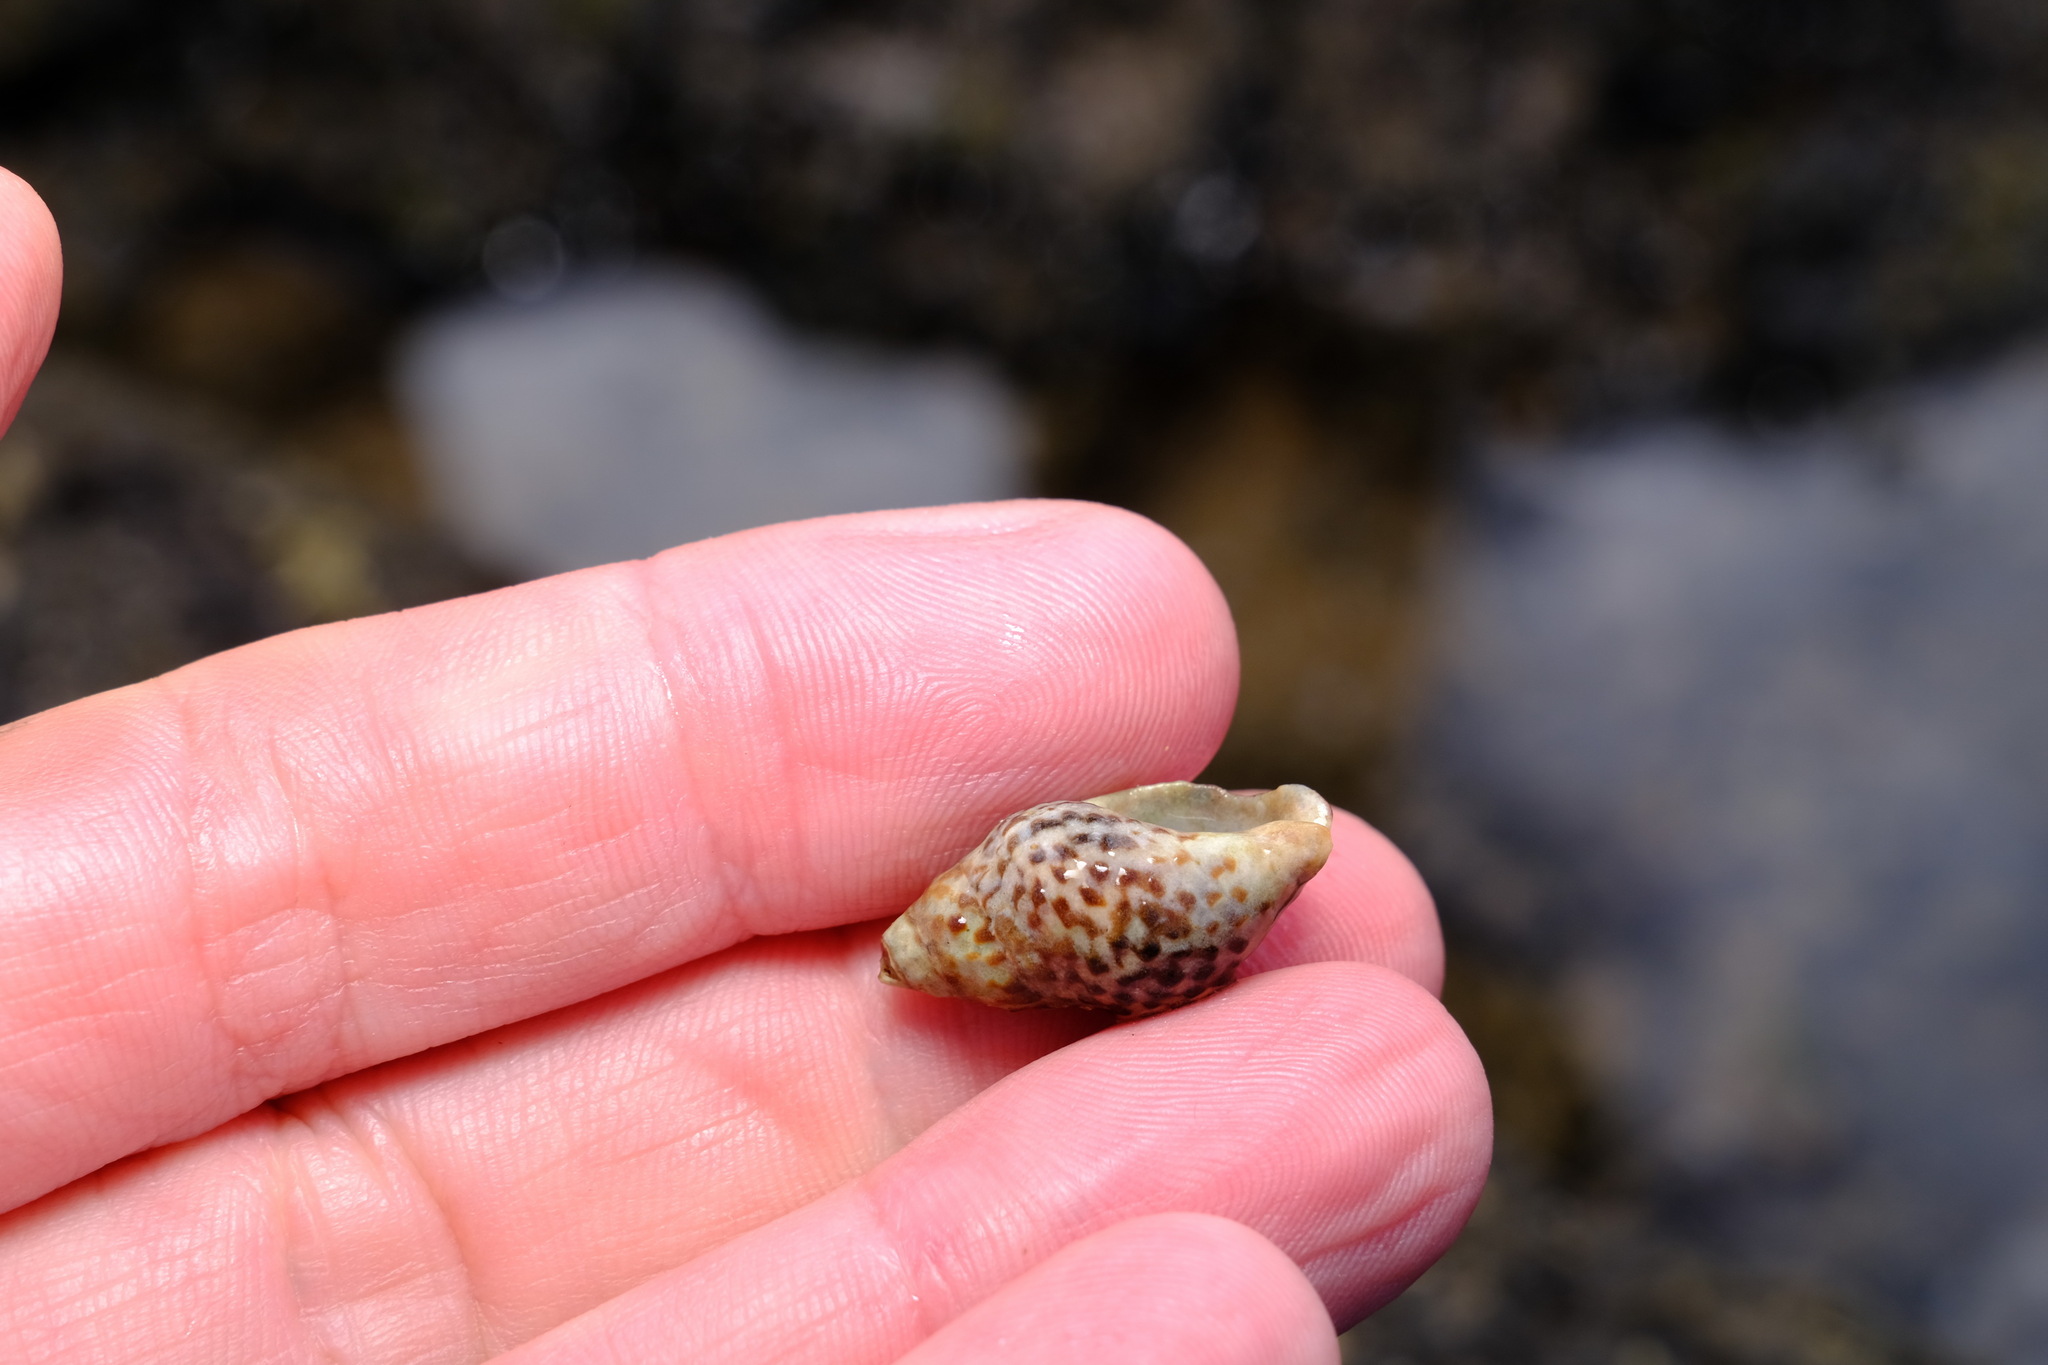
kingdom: Animalia
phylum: Mollusca
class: Gastropoda
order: Neogastropoda
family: Cominellidae
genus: Cominella
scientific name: Cominella lineolata
